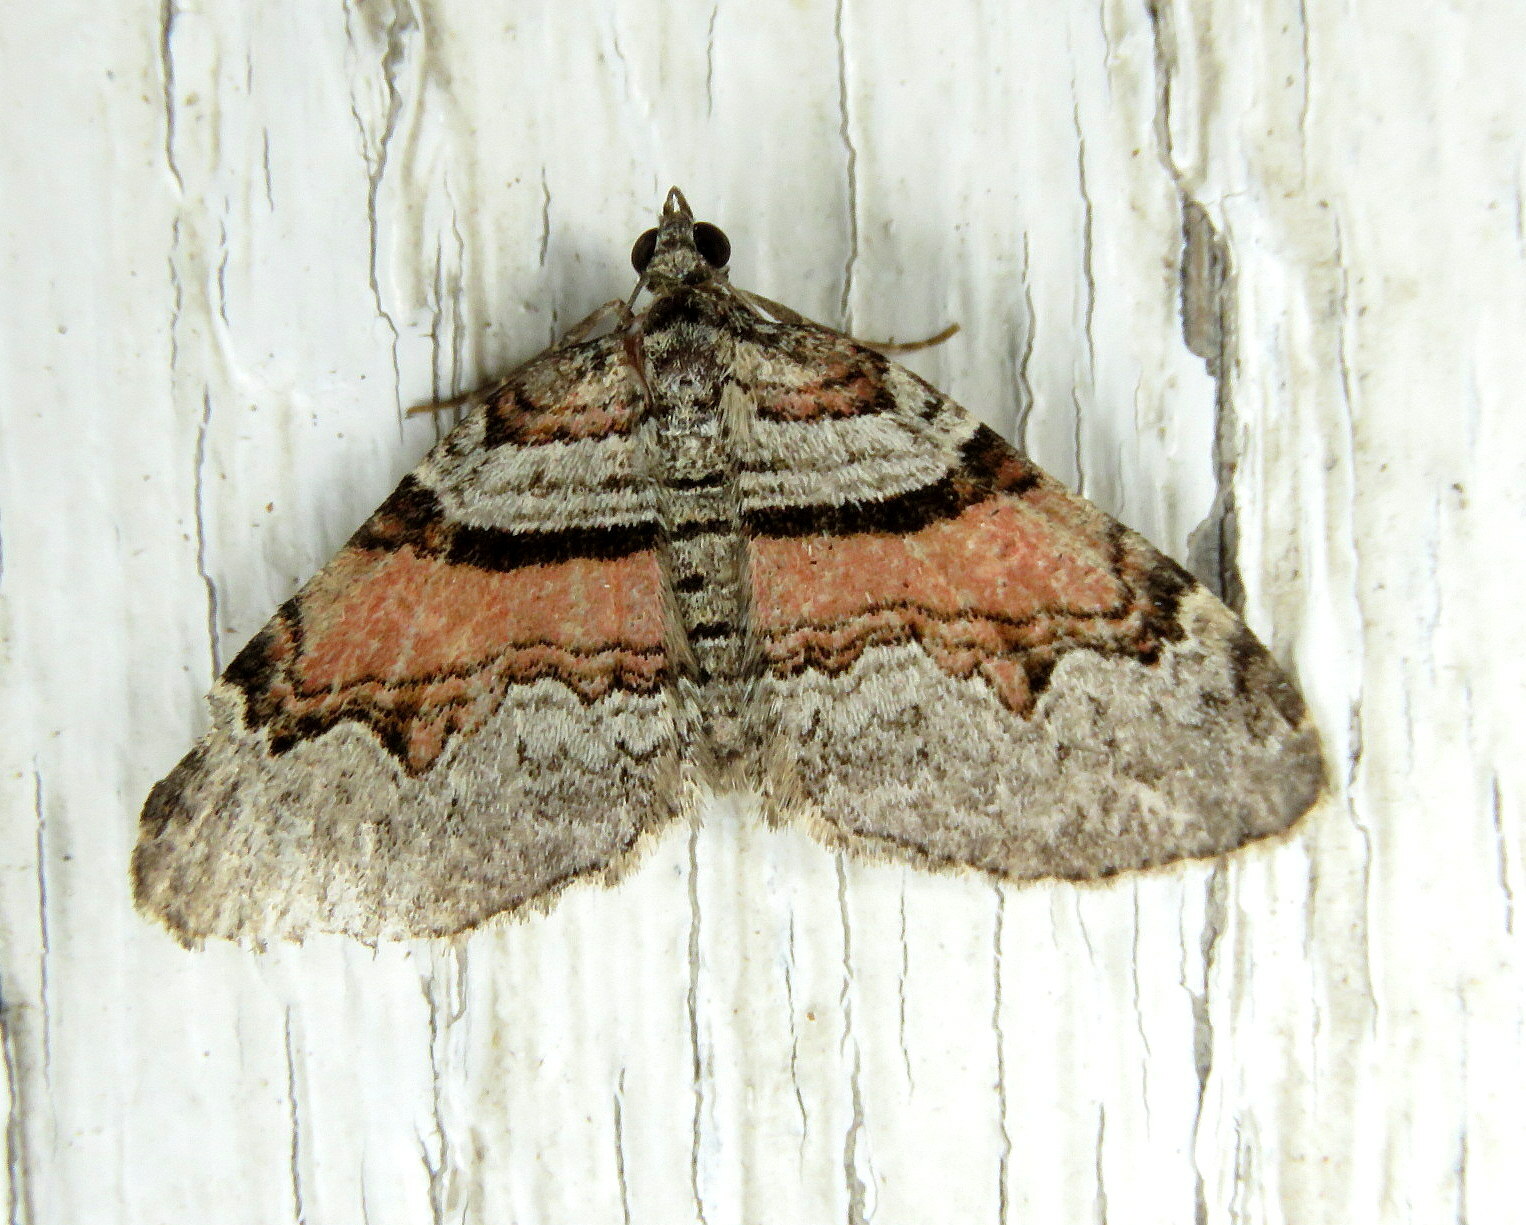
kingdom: Animalia
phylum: Arthropoda
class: Insecta
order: Lepidoptera
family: Geometridae
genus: Xanthorhoe
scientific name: Xanthorhoe packardata
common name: Packard's carpet
